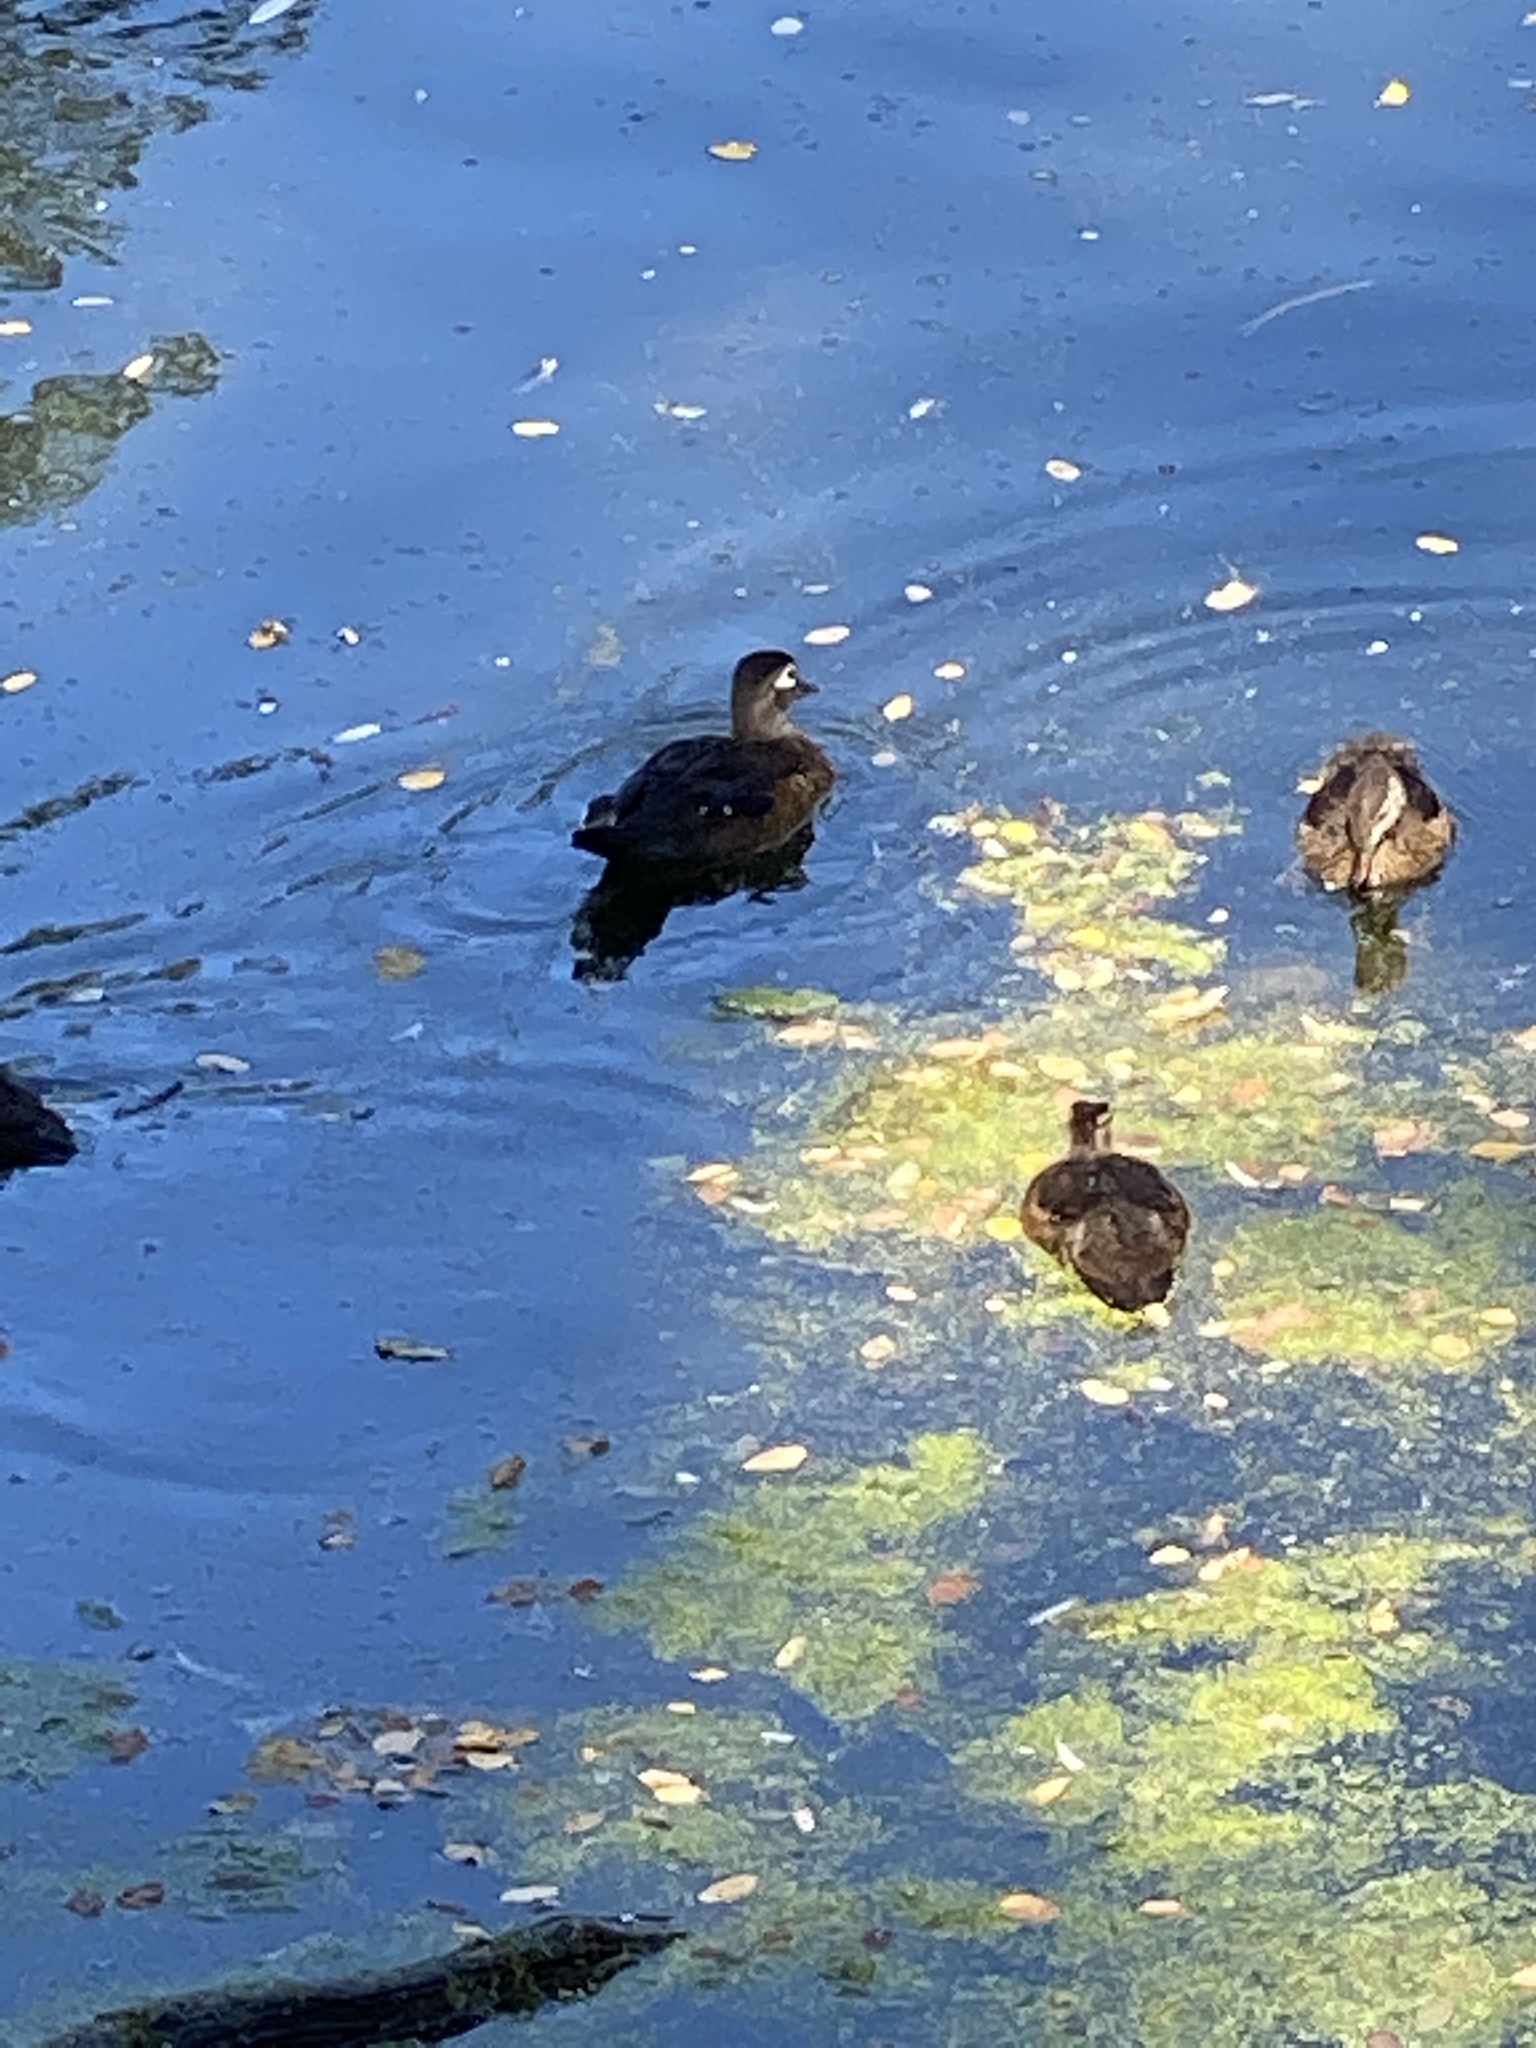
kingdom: Animalia
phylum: Chordata
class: Aves
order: Anseriformes
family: Anatidae
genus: Aix
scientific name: Aix sponsa
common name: Wood duck
